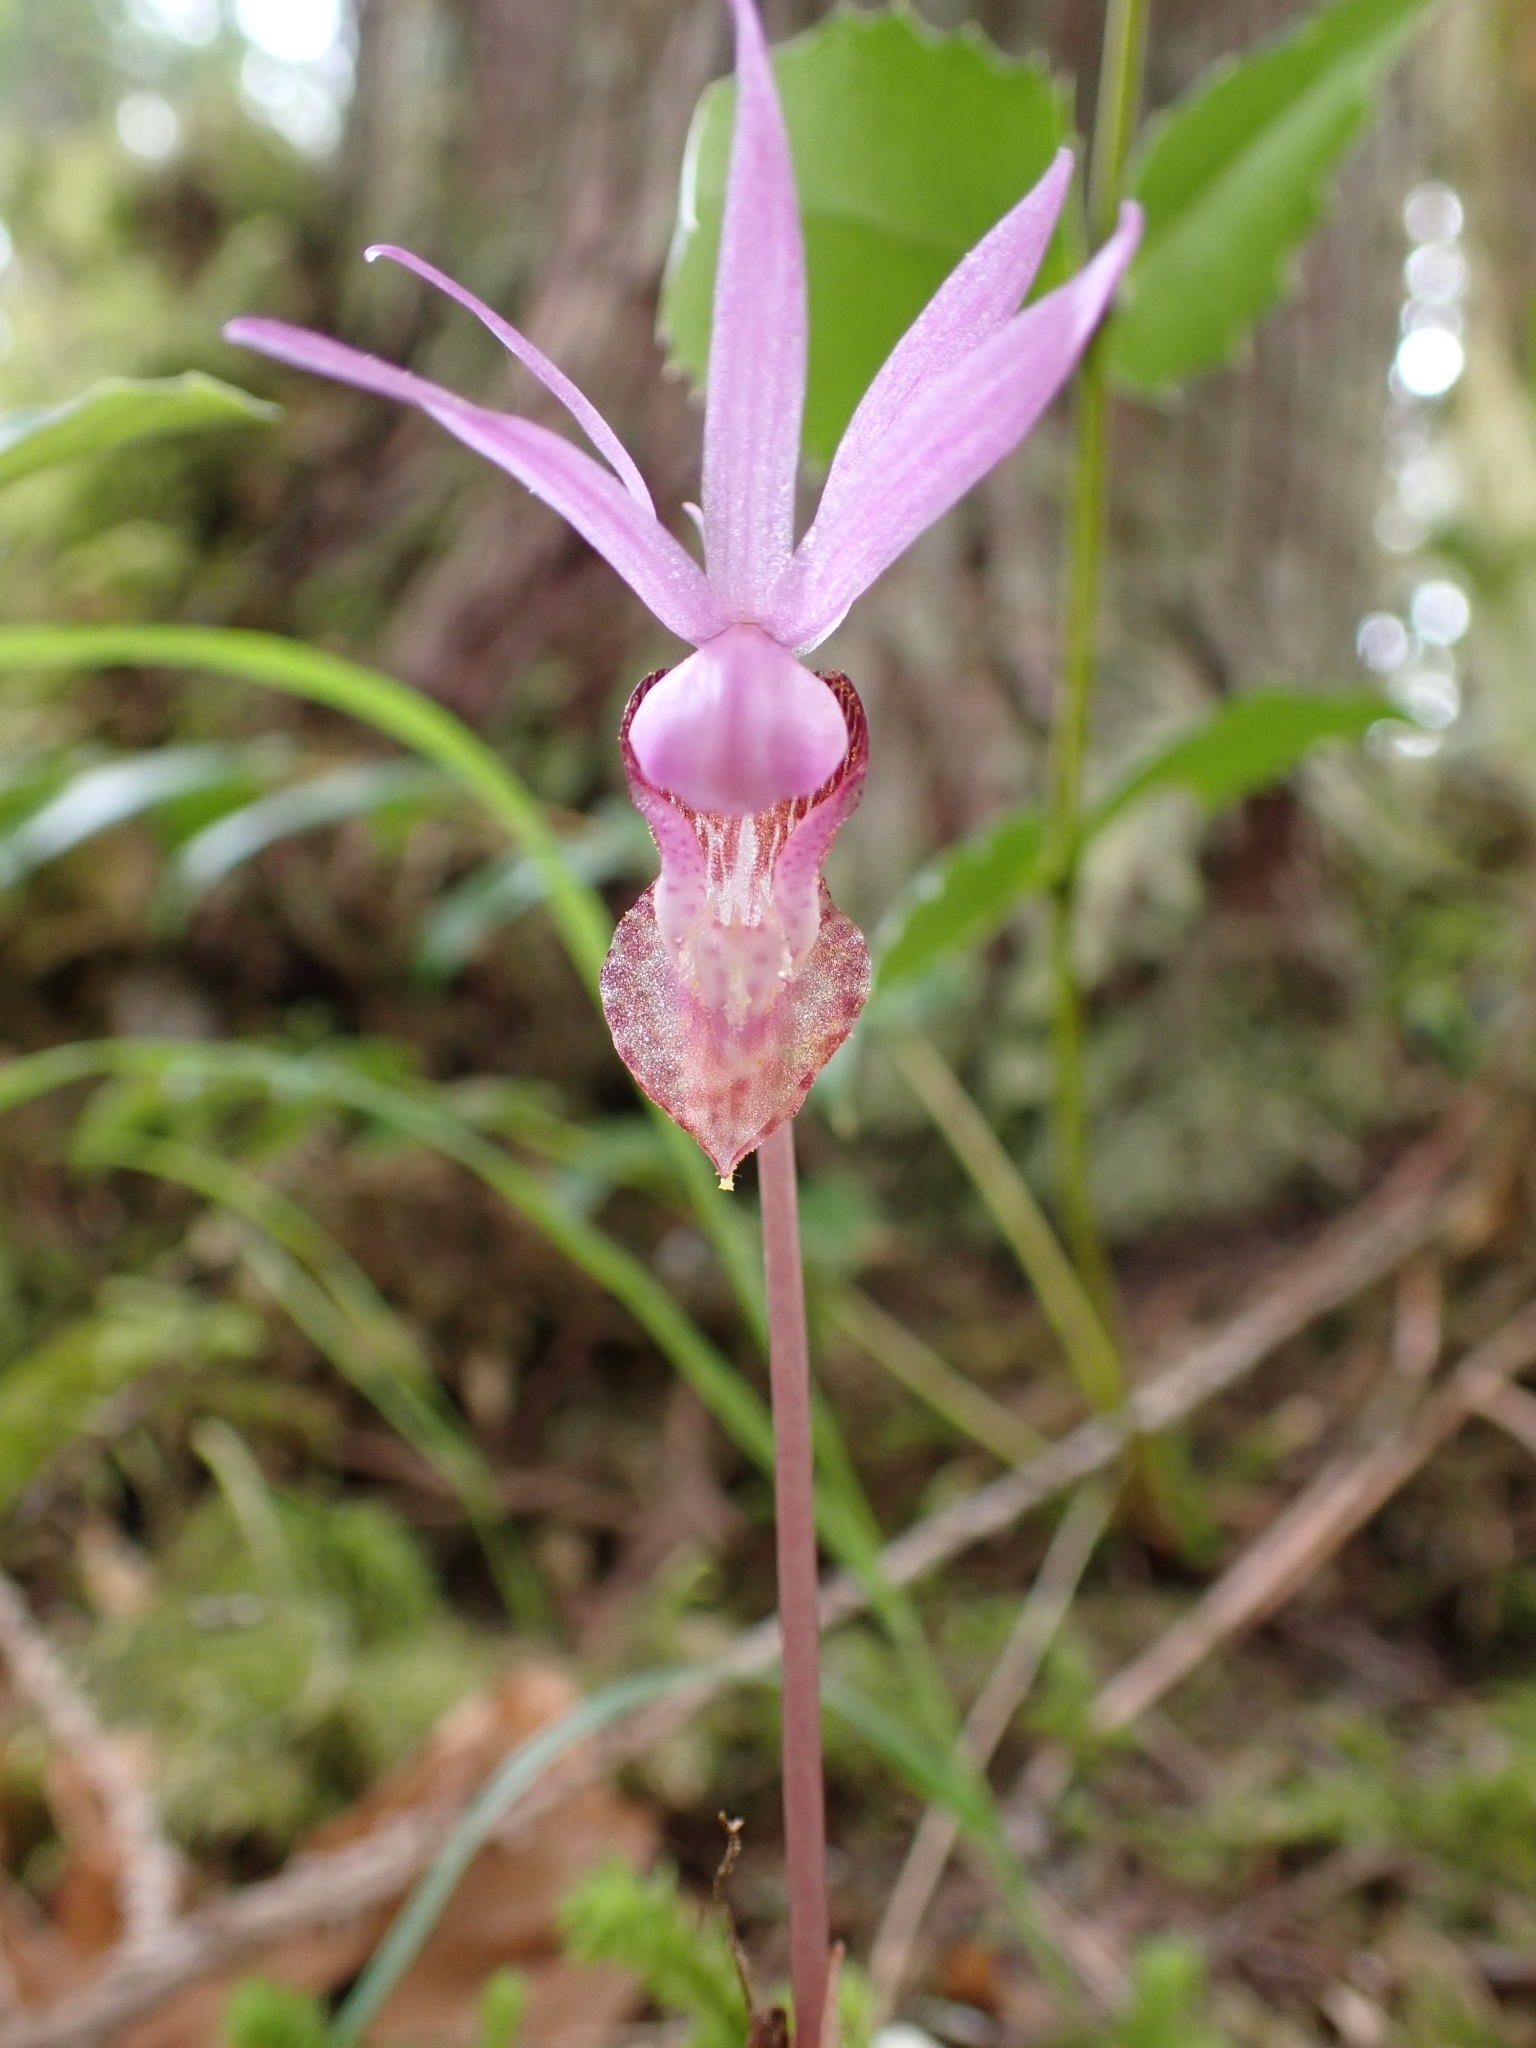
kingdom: Plantae
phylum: Tracheophyta
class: Liliopsida
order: Asparagales
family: Orchidaceae
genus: Calypso
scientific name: Calypso bulbosa
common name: Calypso
